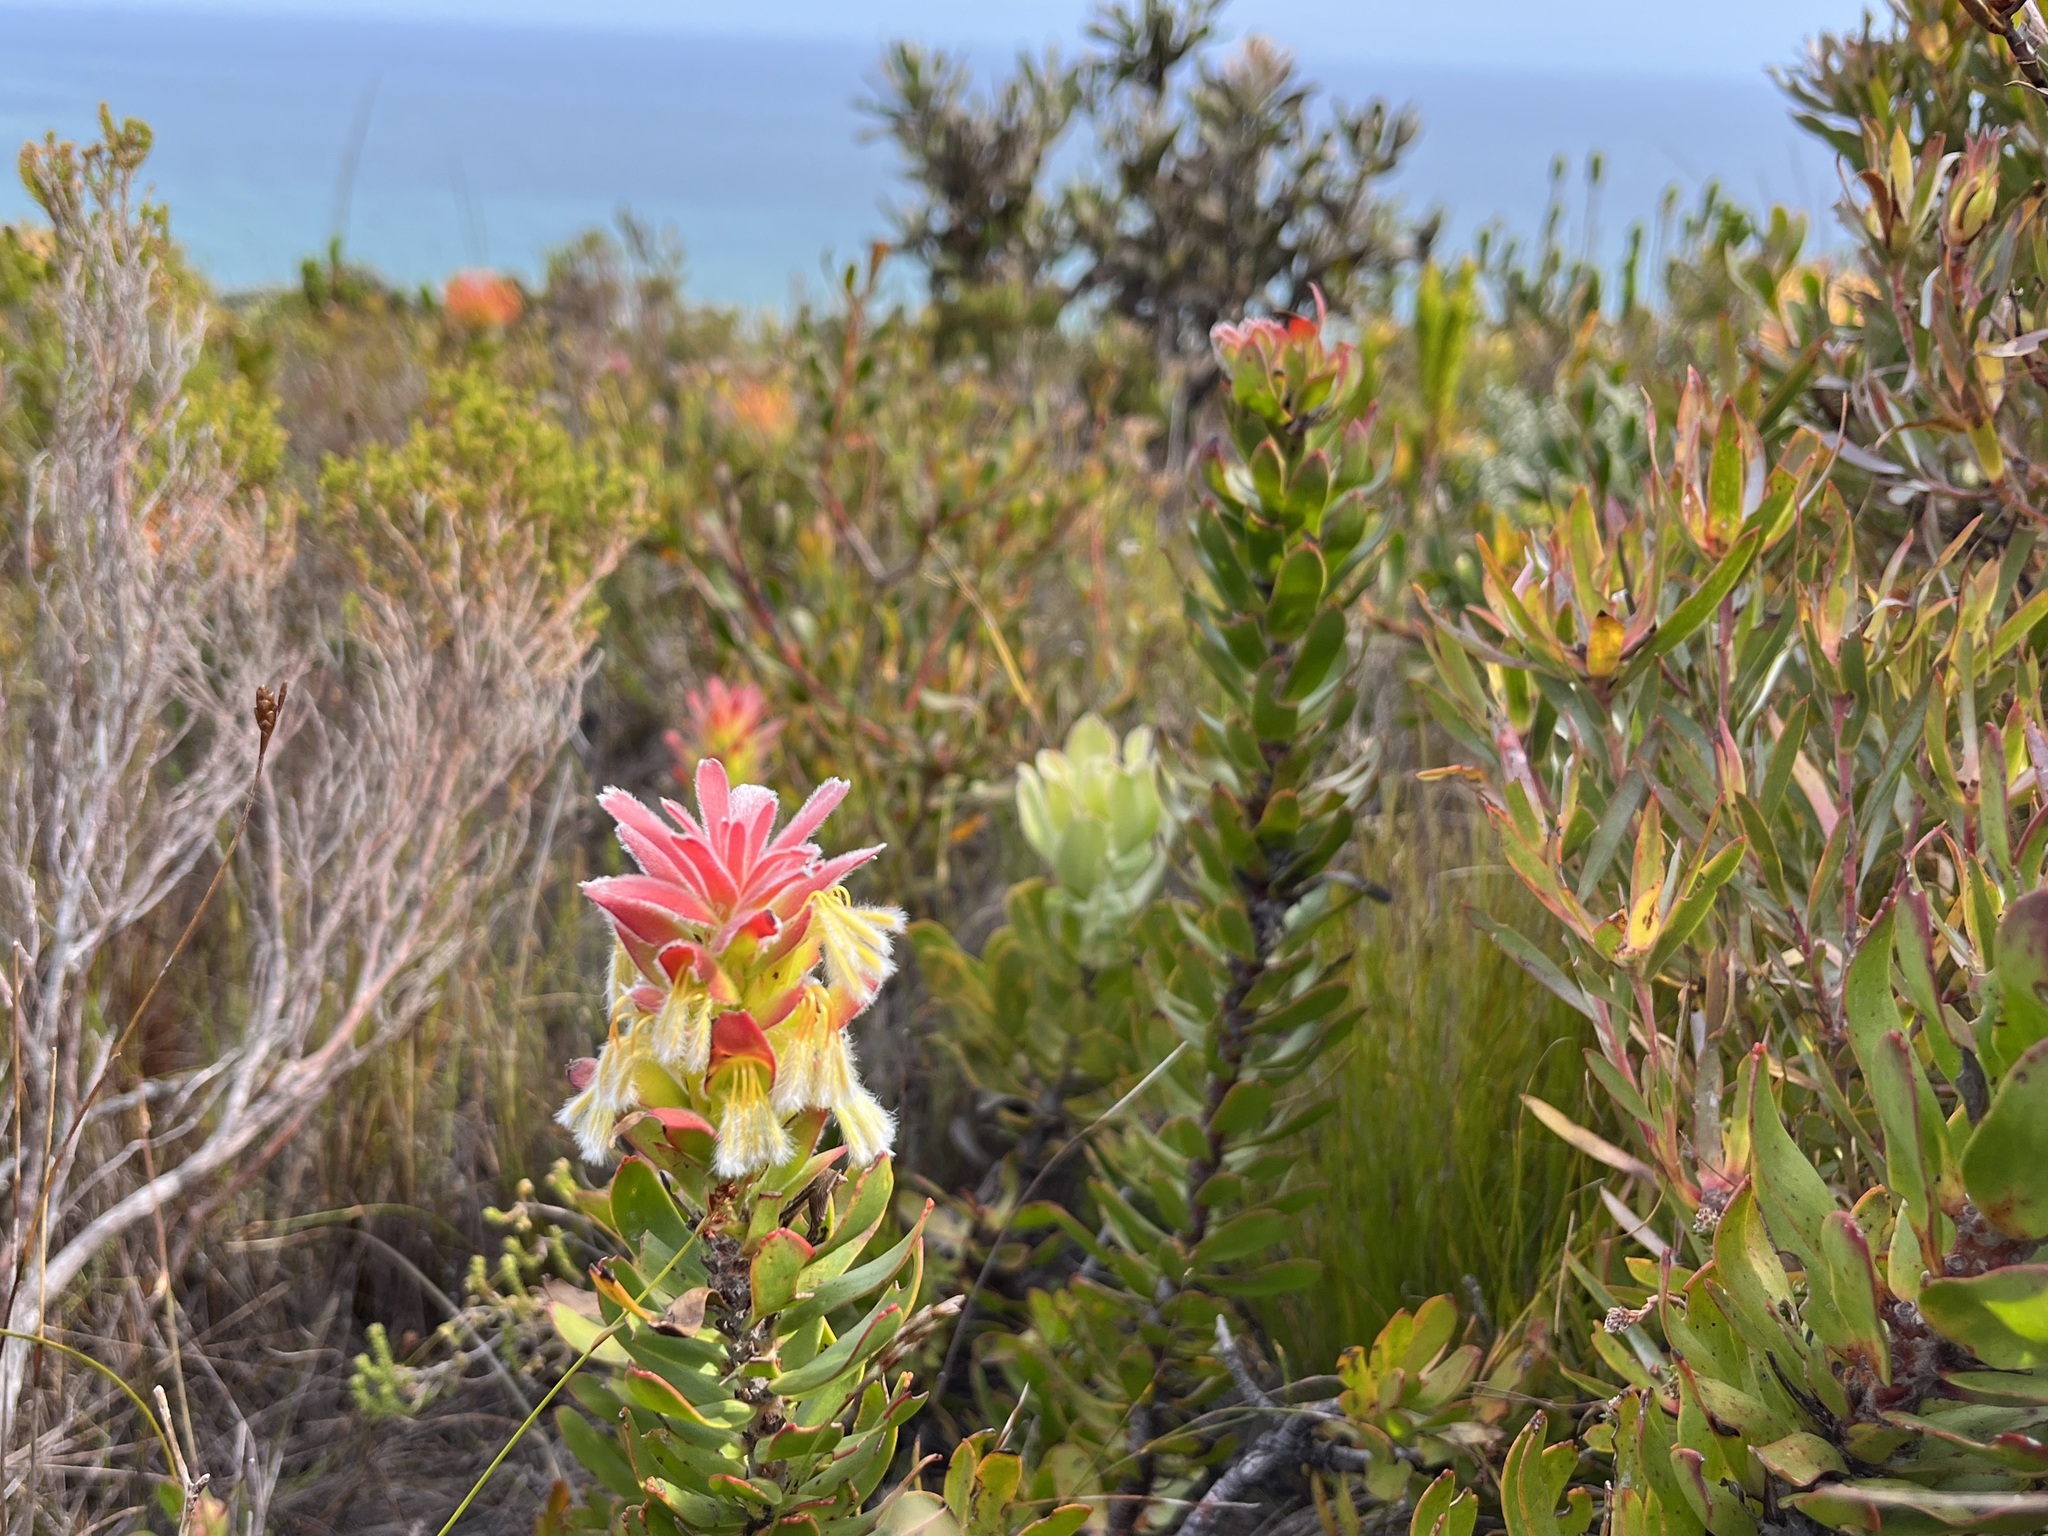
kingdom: Plantae
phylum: Tracheophyta
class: Magnoliopsida
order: Proteales
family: Proteaceae
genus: Mimetes
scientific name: Mimetes cucullatus
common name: Common pagoda
